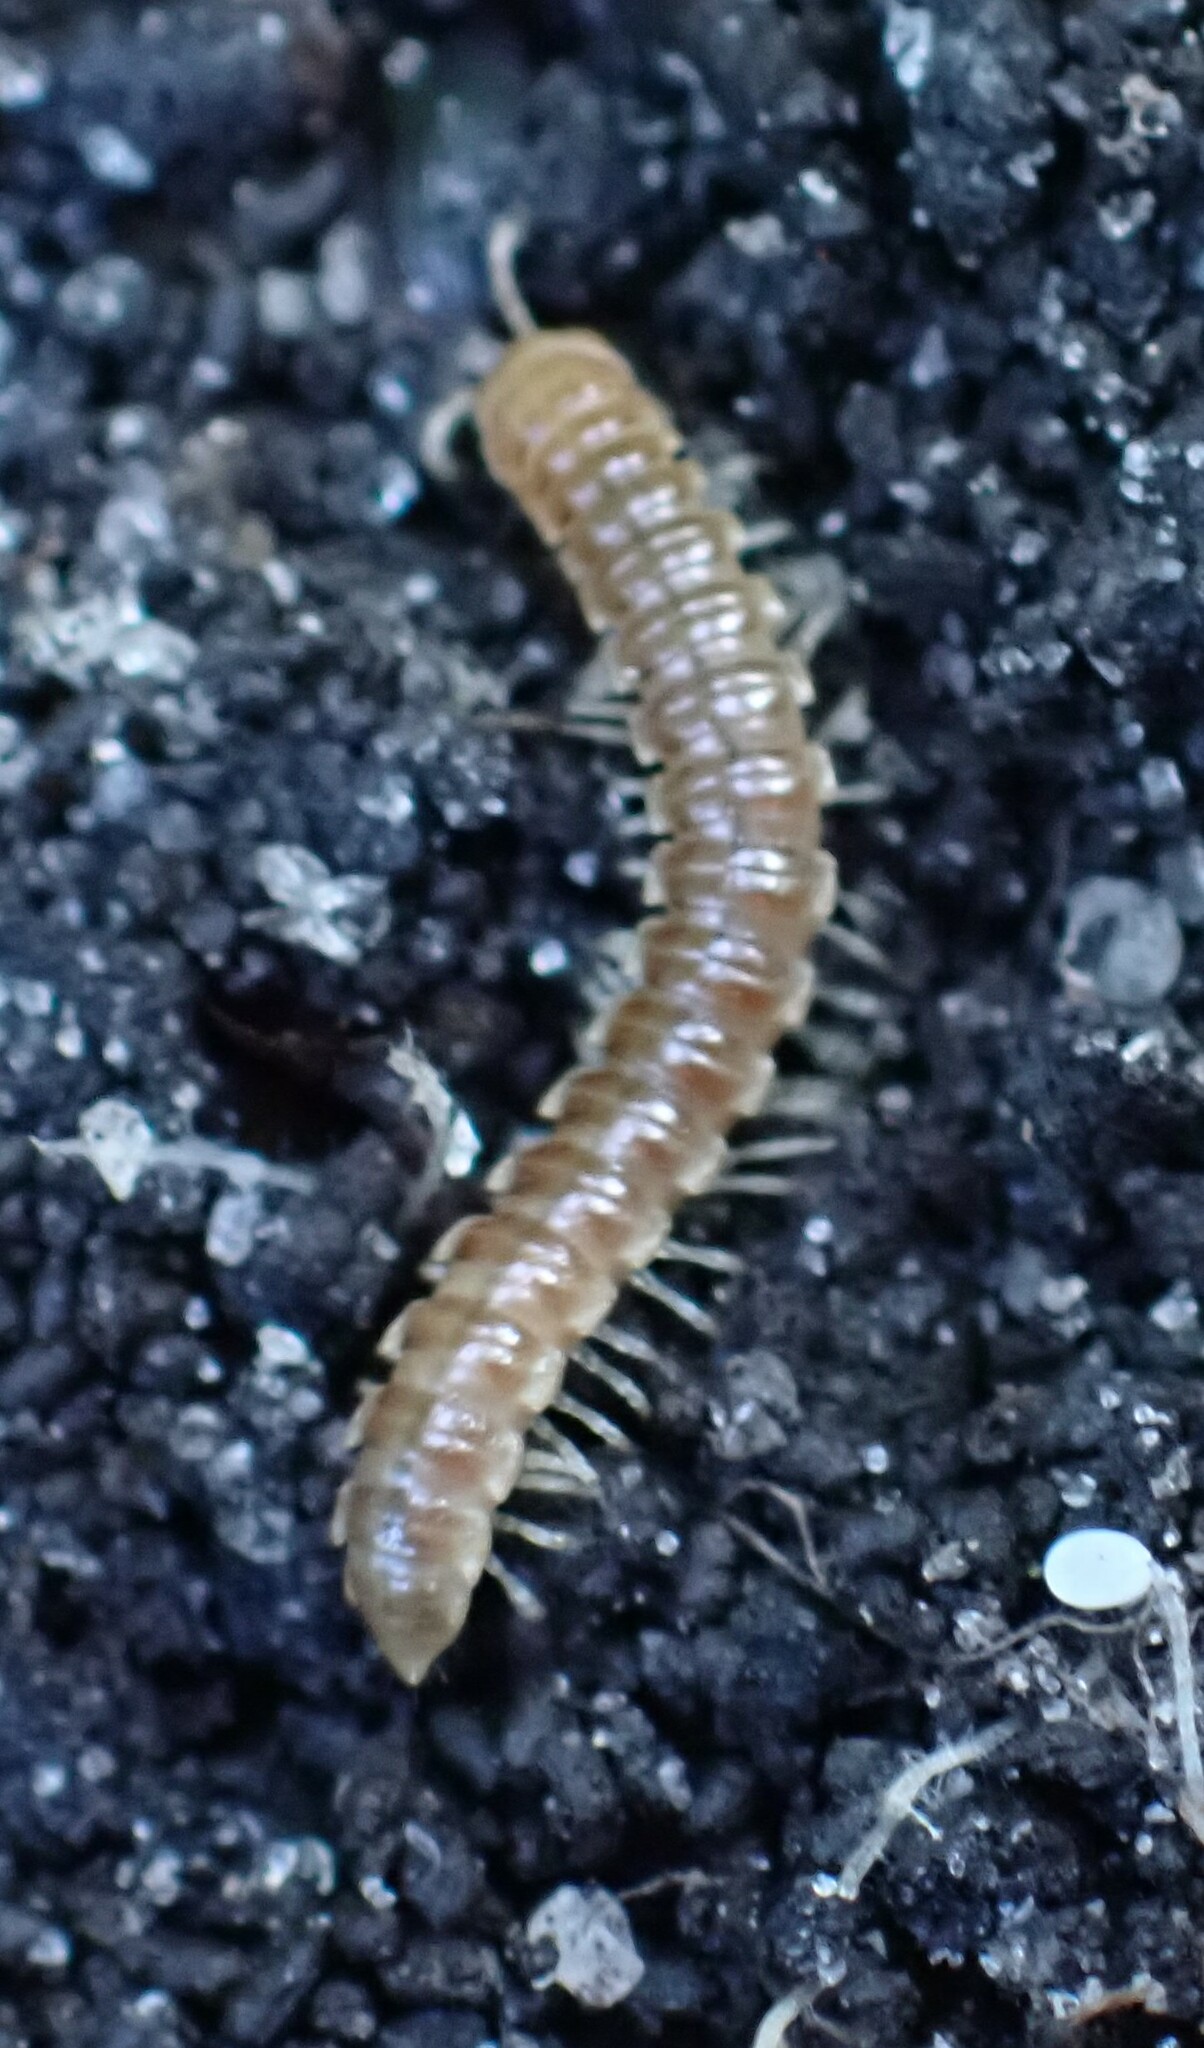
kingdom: Animalia
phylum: Arthropoda
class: Diplopoda
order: Polydesmida
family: Paradoxosomatidae
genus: Oxidus
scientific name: Oxidus gracilis
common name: Greenhouse millipede
